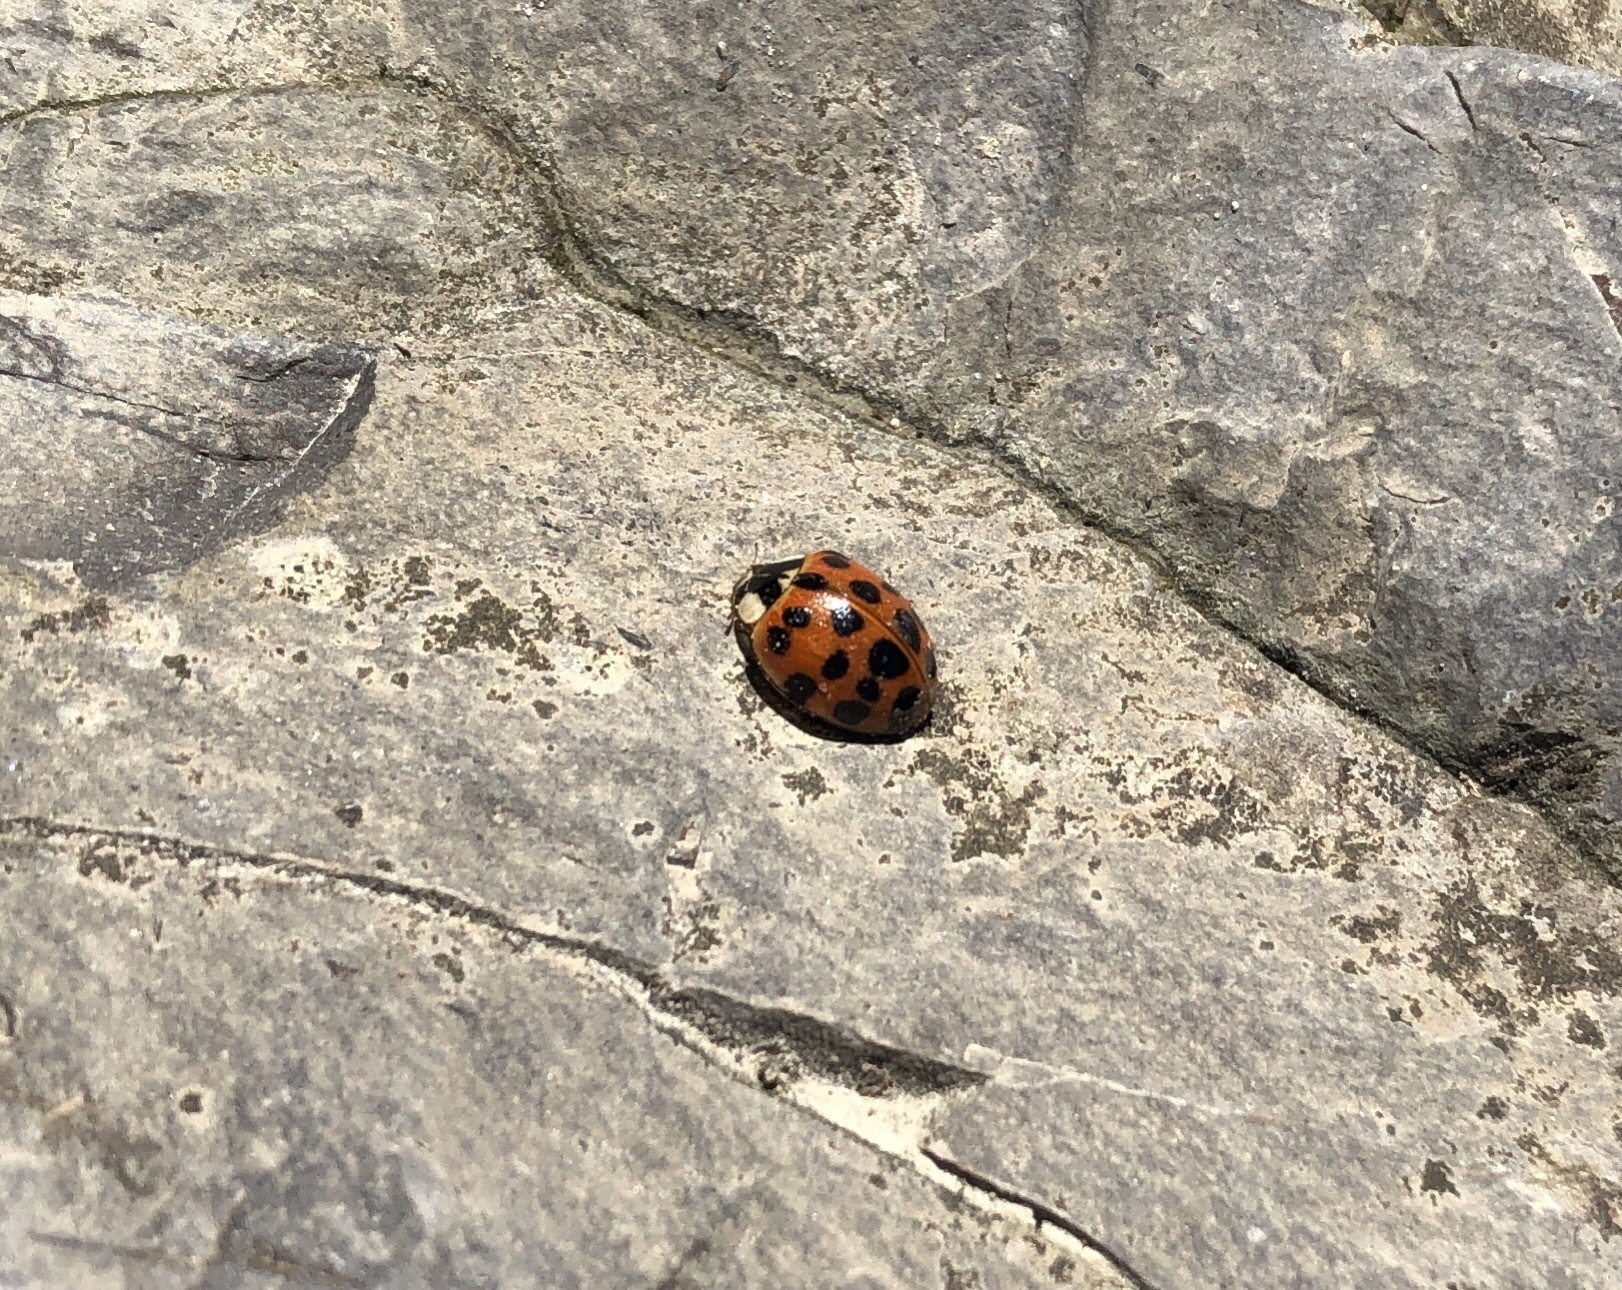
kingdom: Animalia
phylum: Arthropoda
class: Insecta
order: Coleoptera
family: Coccinellidae
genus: Harmonia
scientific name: Harmonia axyridis
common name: Harlequin ladybird
